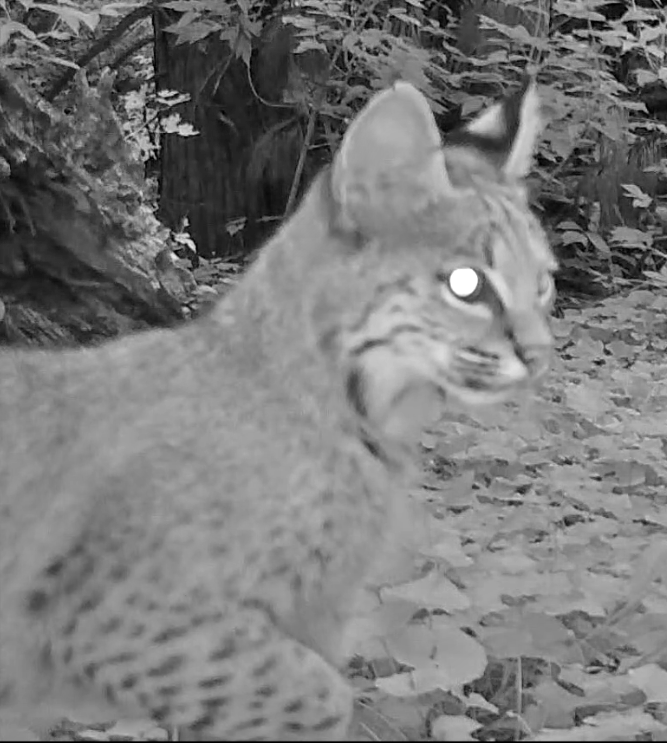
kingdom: Animalia
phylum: Chordata
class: Mammalia
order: Carnivora
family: Felidae
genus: Lynx
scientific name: Lynx rufus
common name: Bobcat
